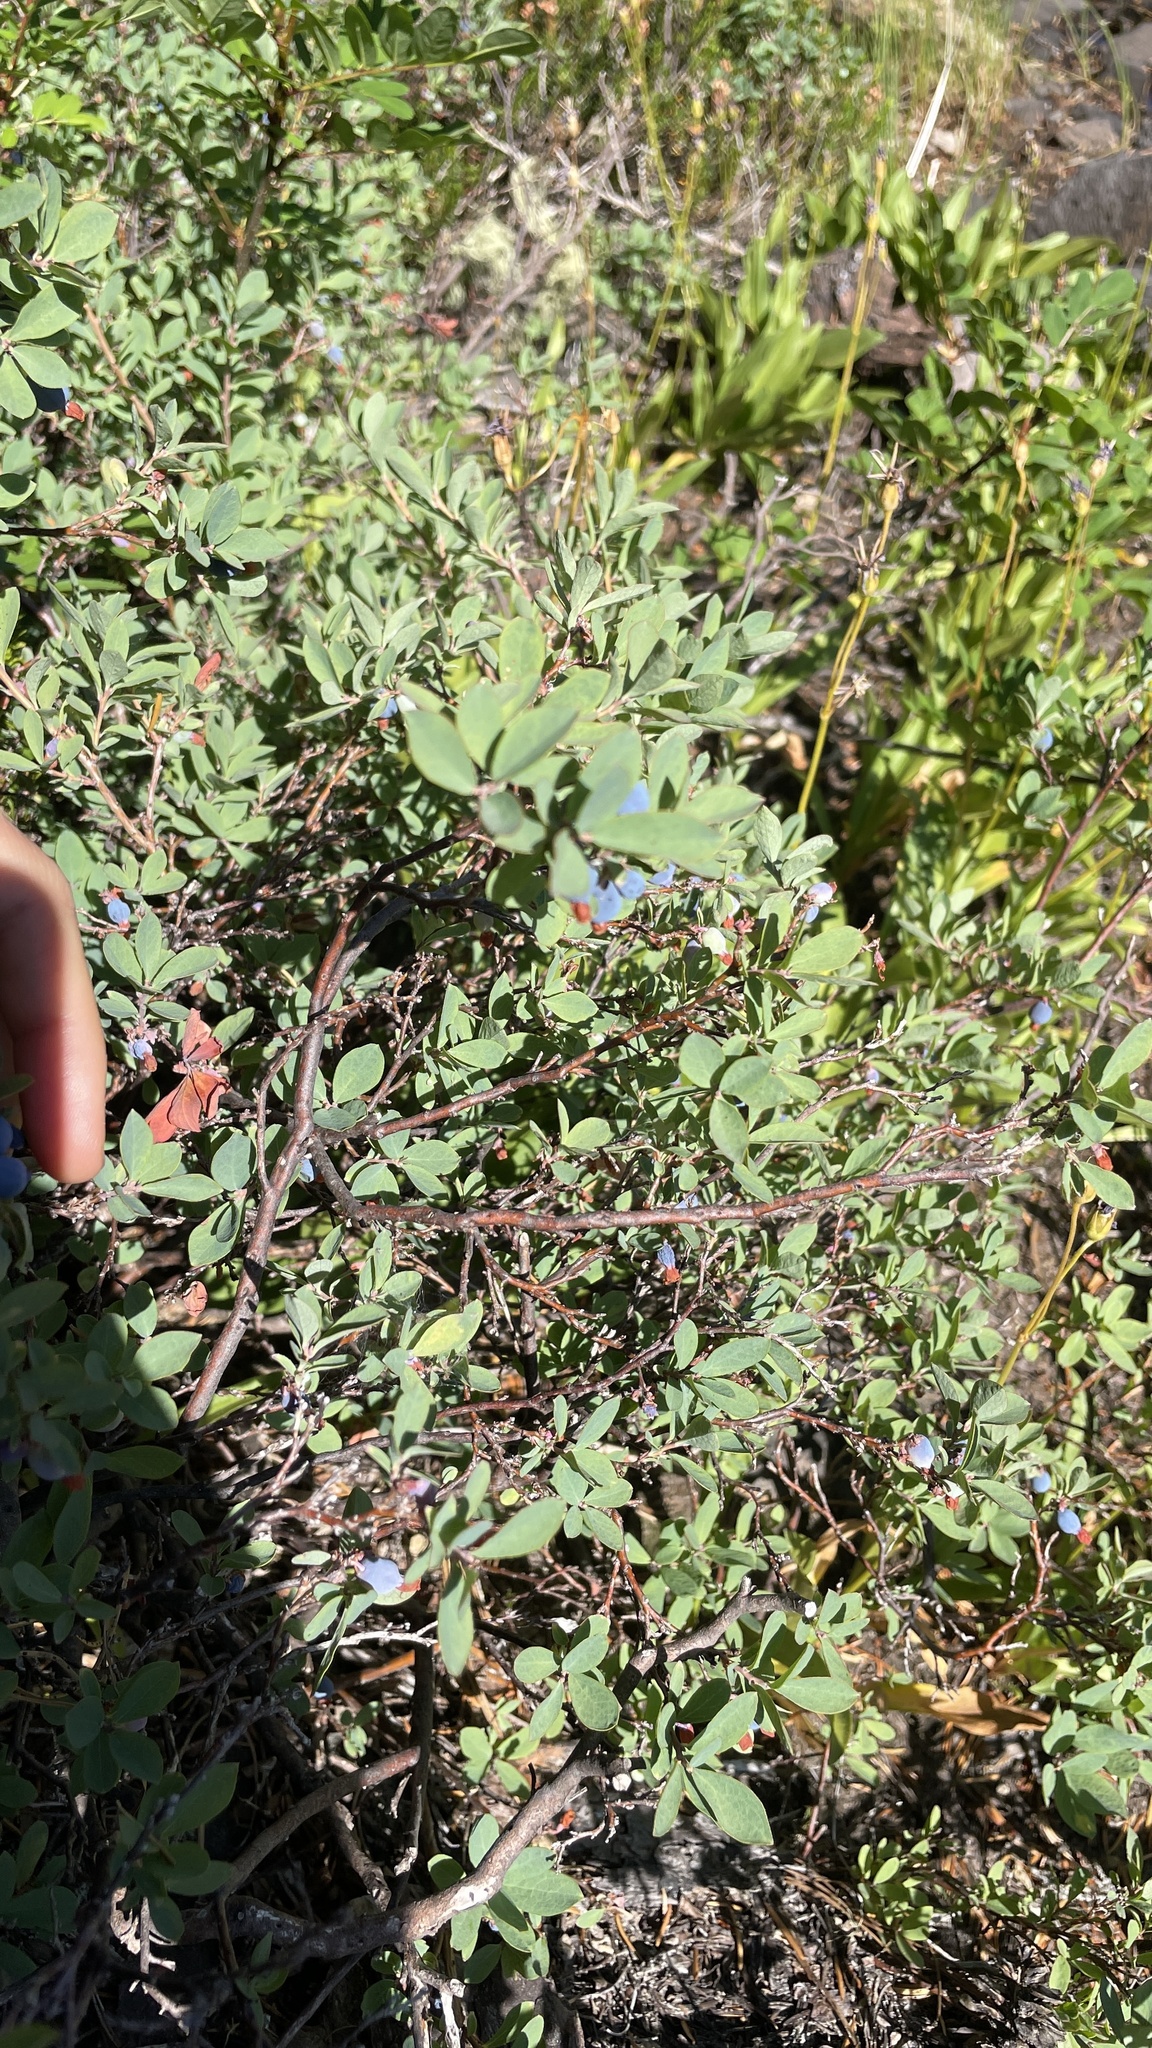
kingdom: Plantae
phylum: Tracheophyta
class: Magnoliopsida
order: Ericales
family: Ericaceae
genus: Vaccinium
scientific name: Vaccinium uliginosum
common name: Bog bilberry
